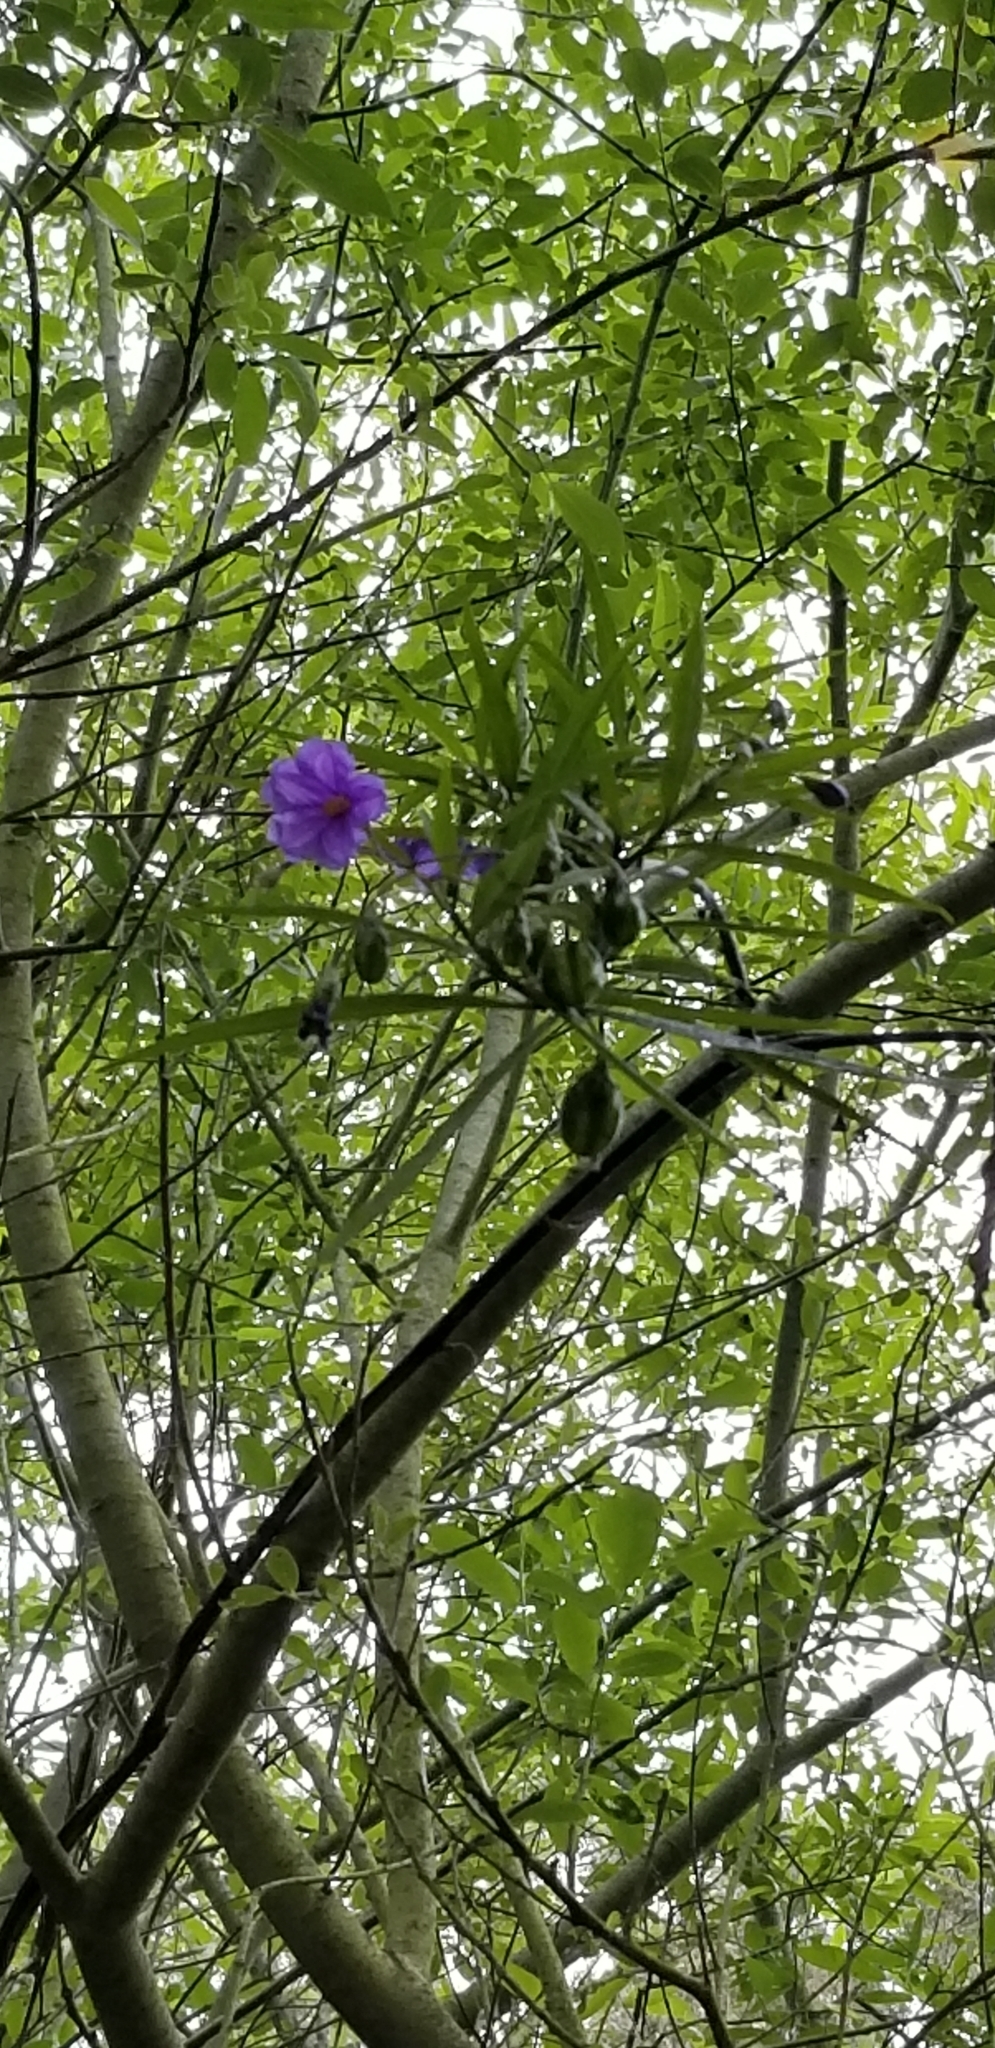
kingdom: Plantae
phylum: Tracheophyta
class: Magnoliopsida
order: Solanales
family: Solanaceae
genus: Solanum
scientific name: Solanum laciniatum
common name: Kangaroo-apple
